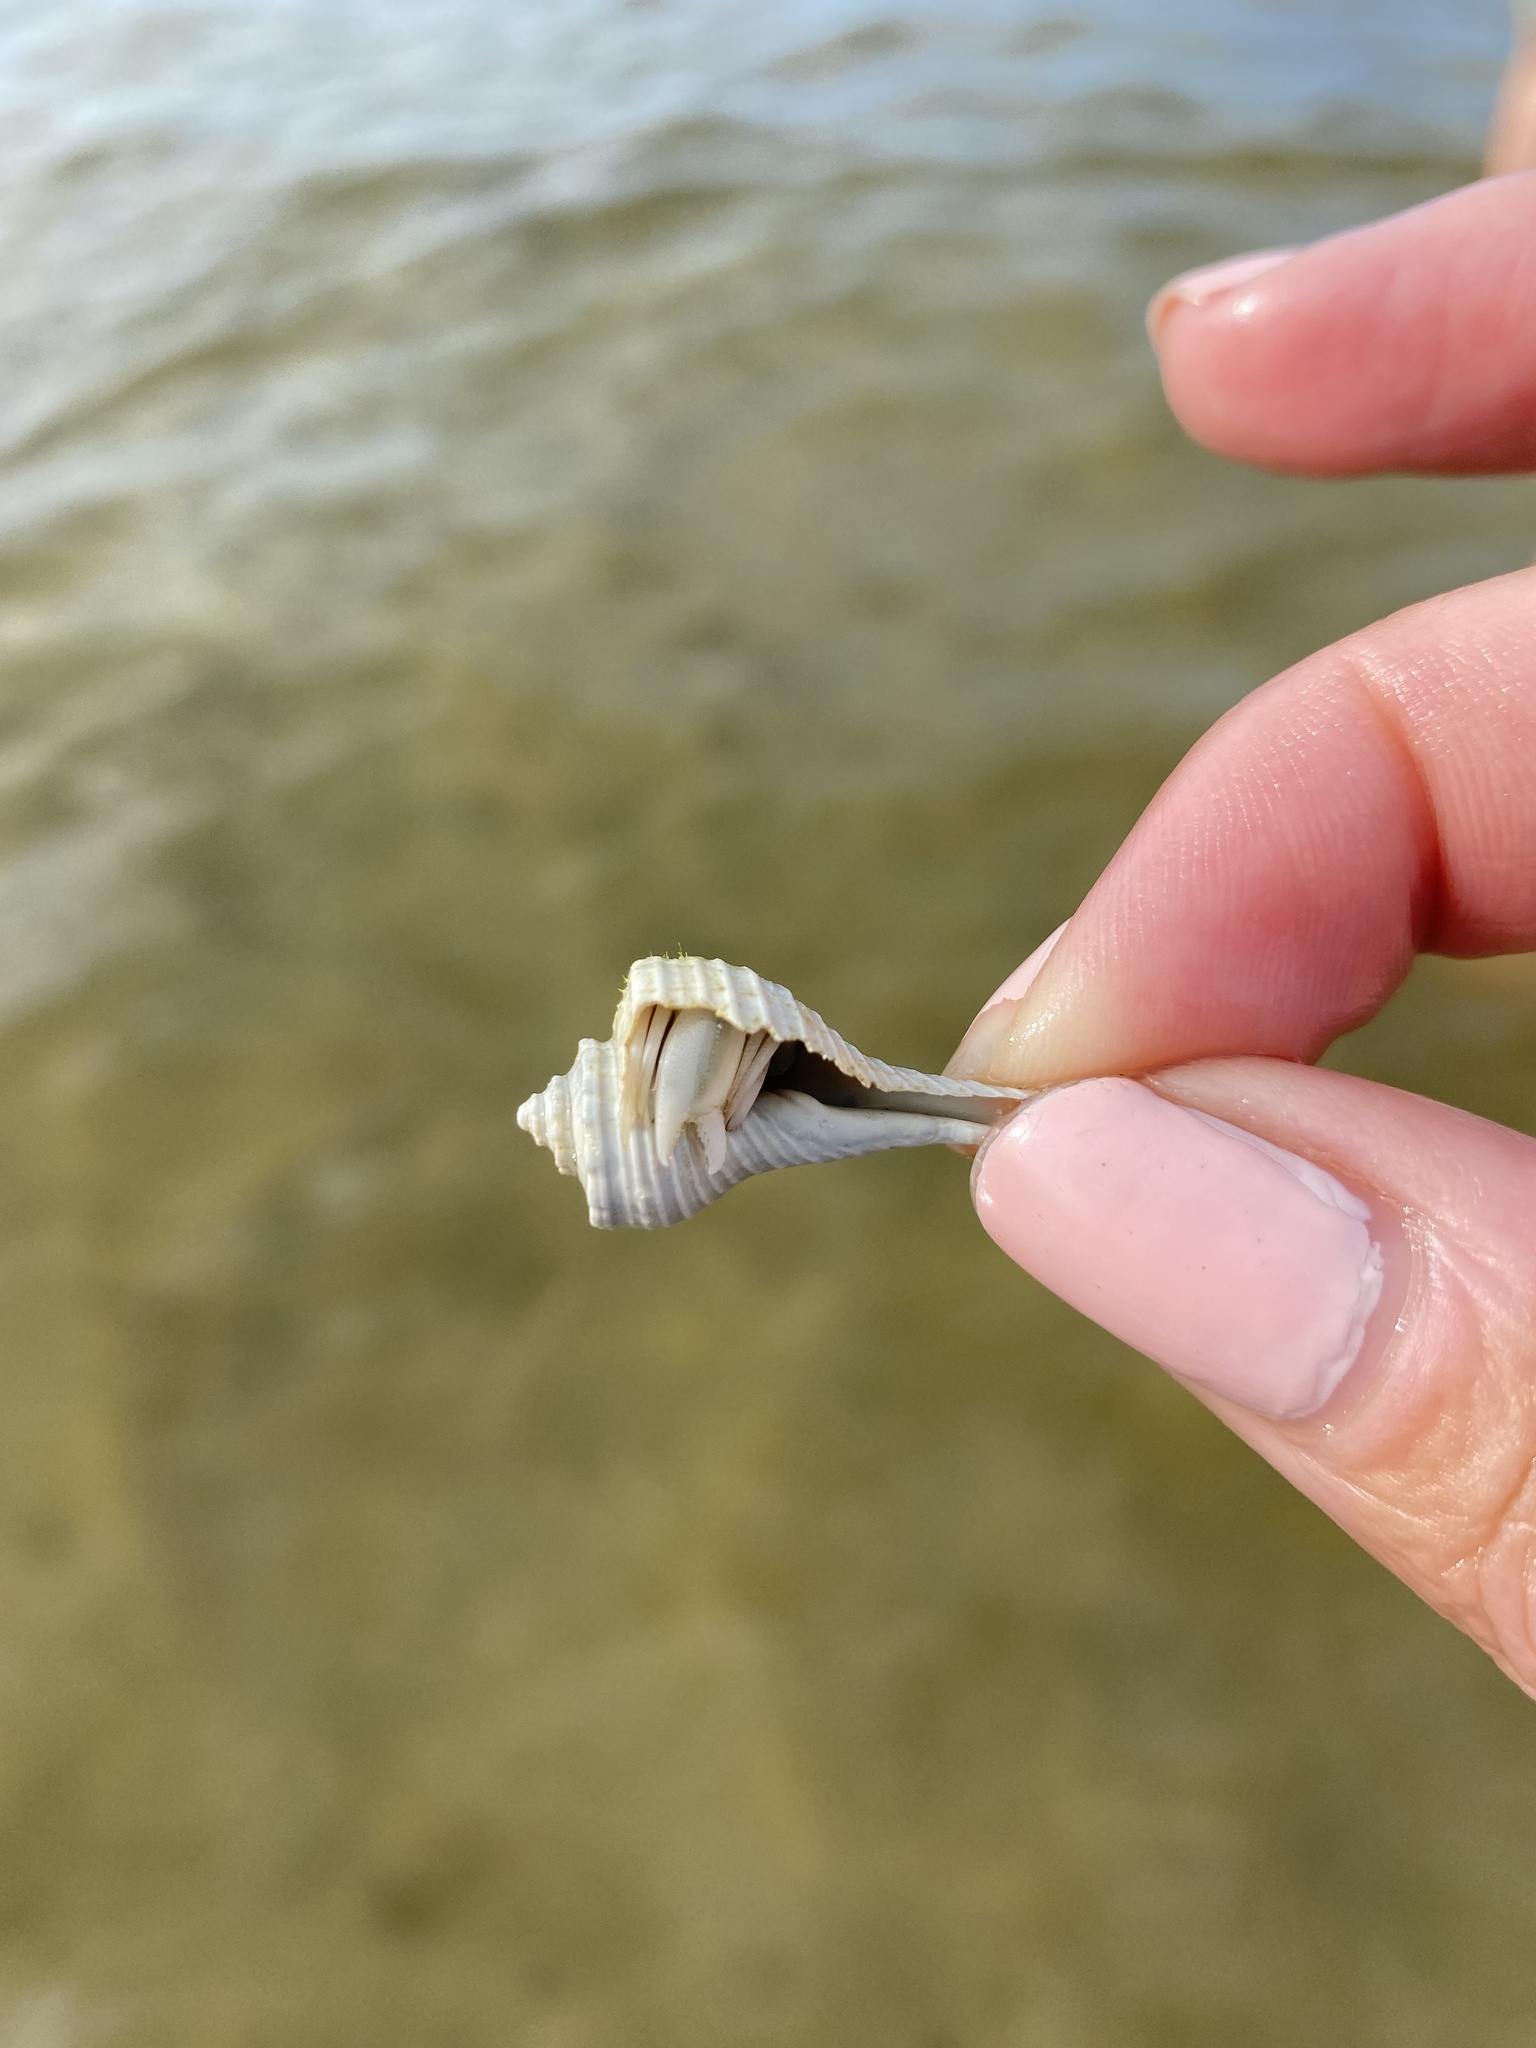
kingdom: Animalia
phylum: Arthropoda
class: Malacostraca
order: Decapoda
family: Paguridae
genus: Pagurus
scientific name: Pagurus longicarpus
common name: Long-armed hermit crab
